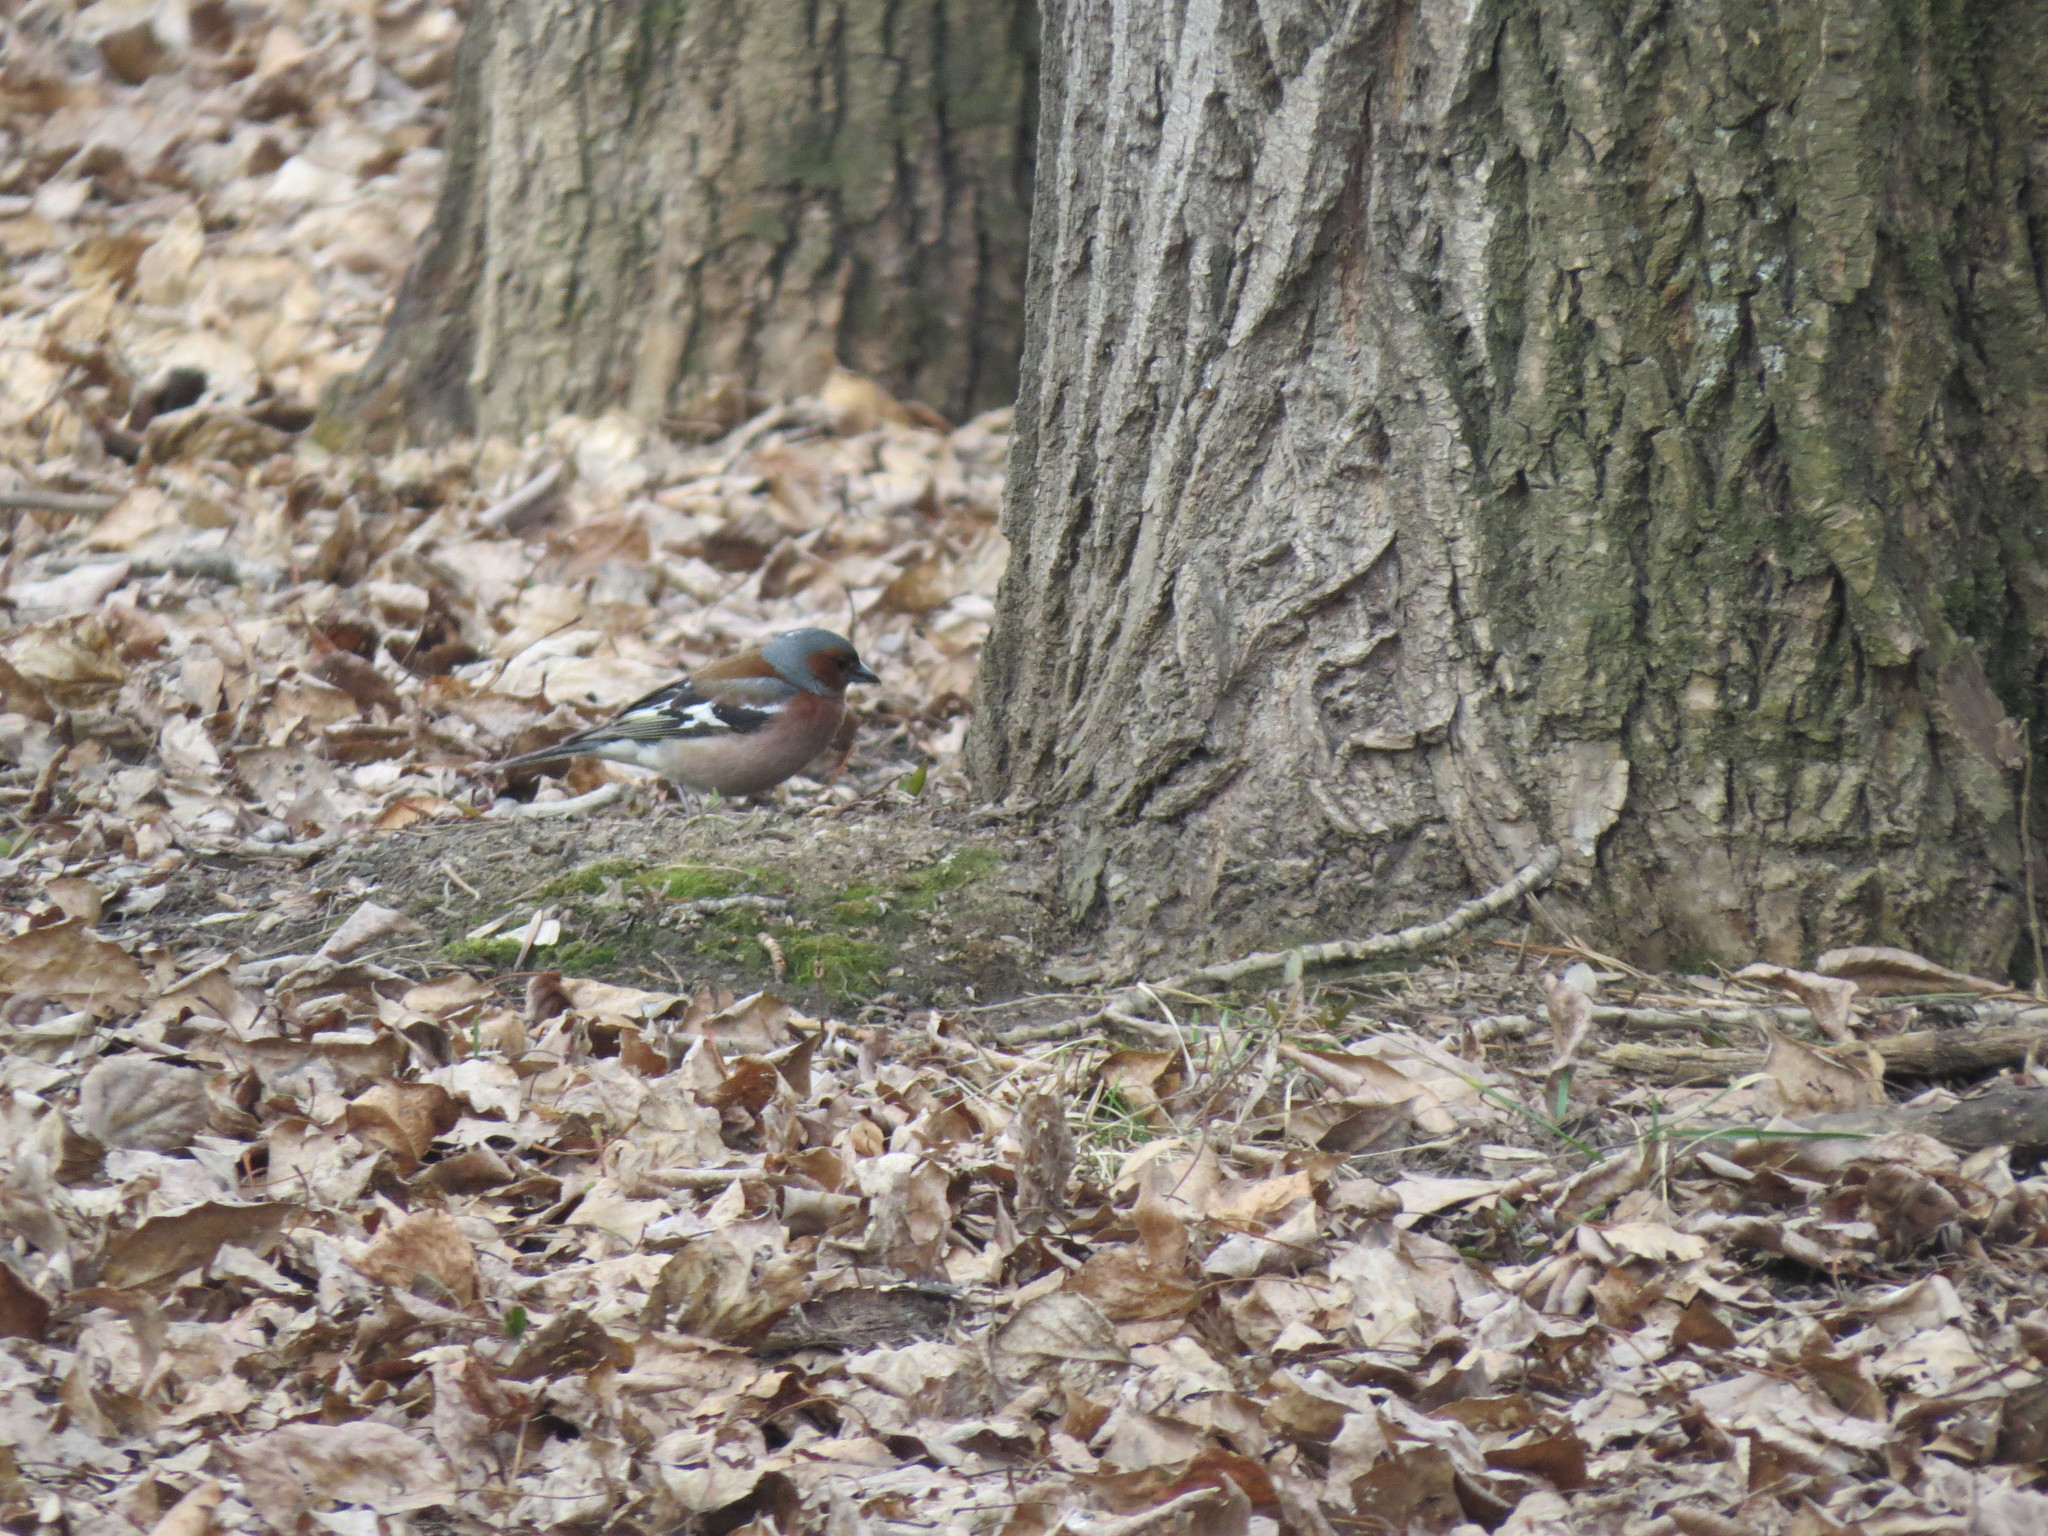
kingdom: Animalia
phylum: Chordata
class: Aves
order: Passeriformes
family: Fringillidae
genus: Fringilla
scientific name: Fringilla coelebs
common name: Common chaffinch
